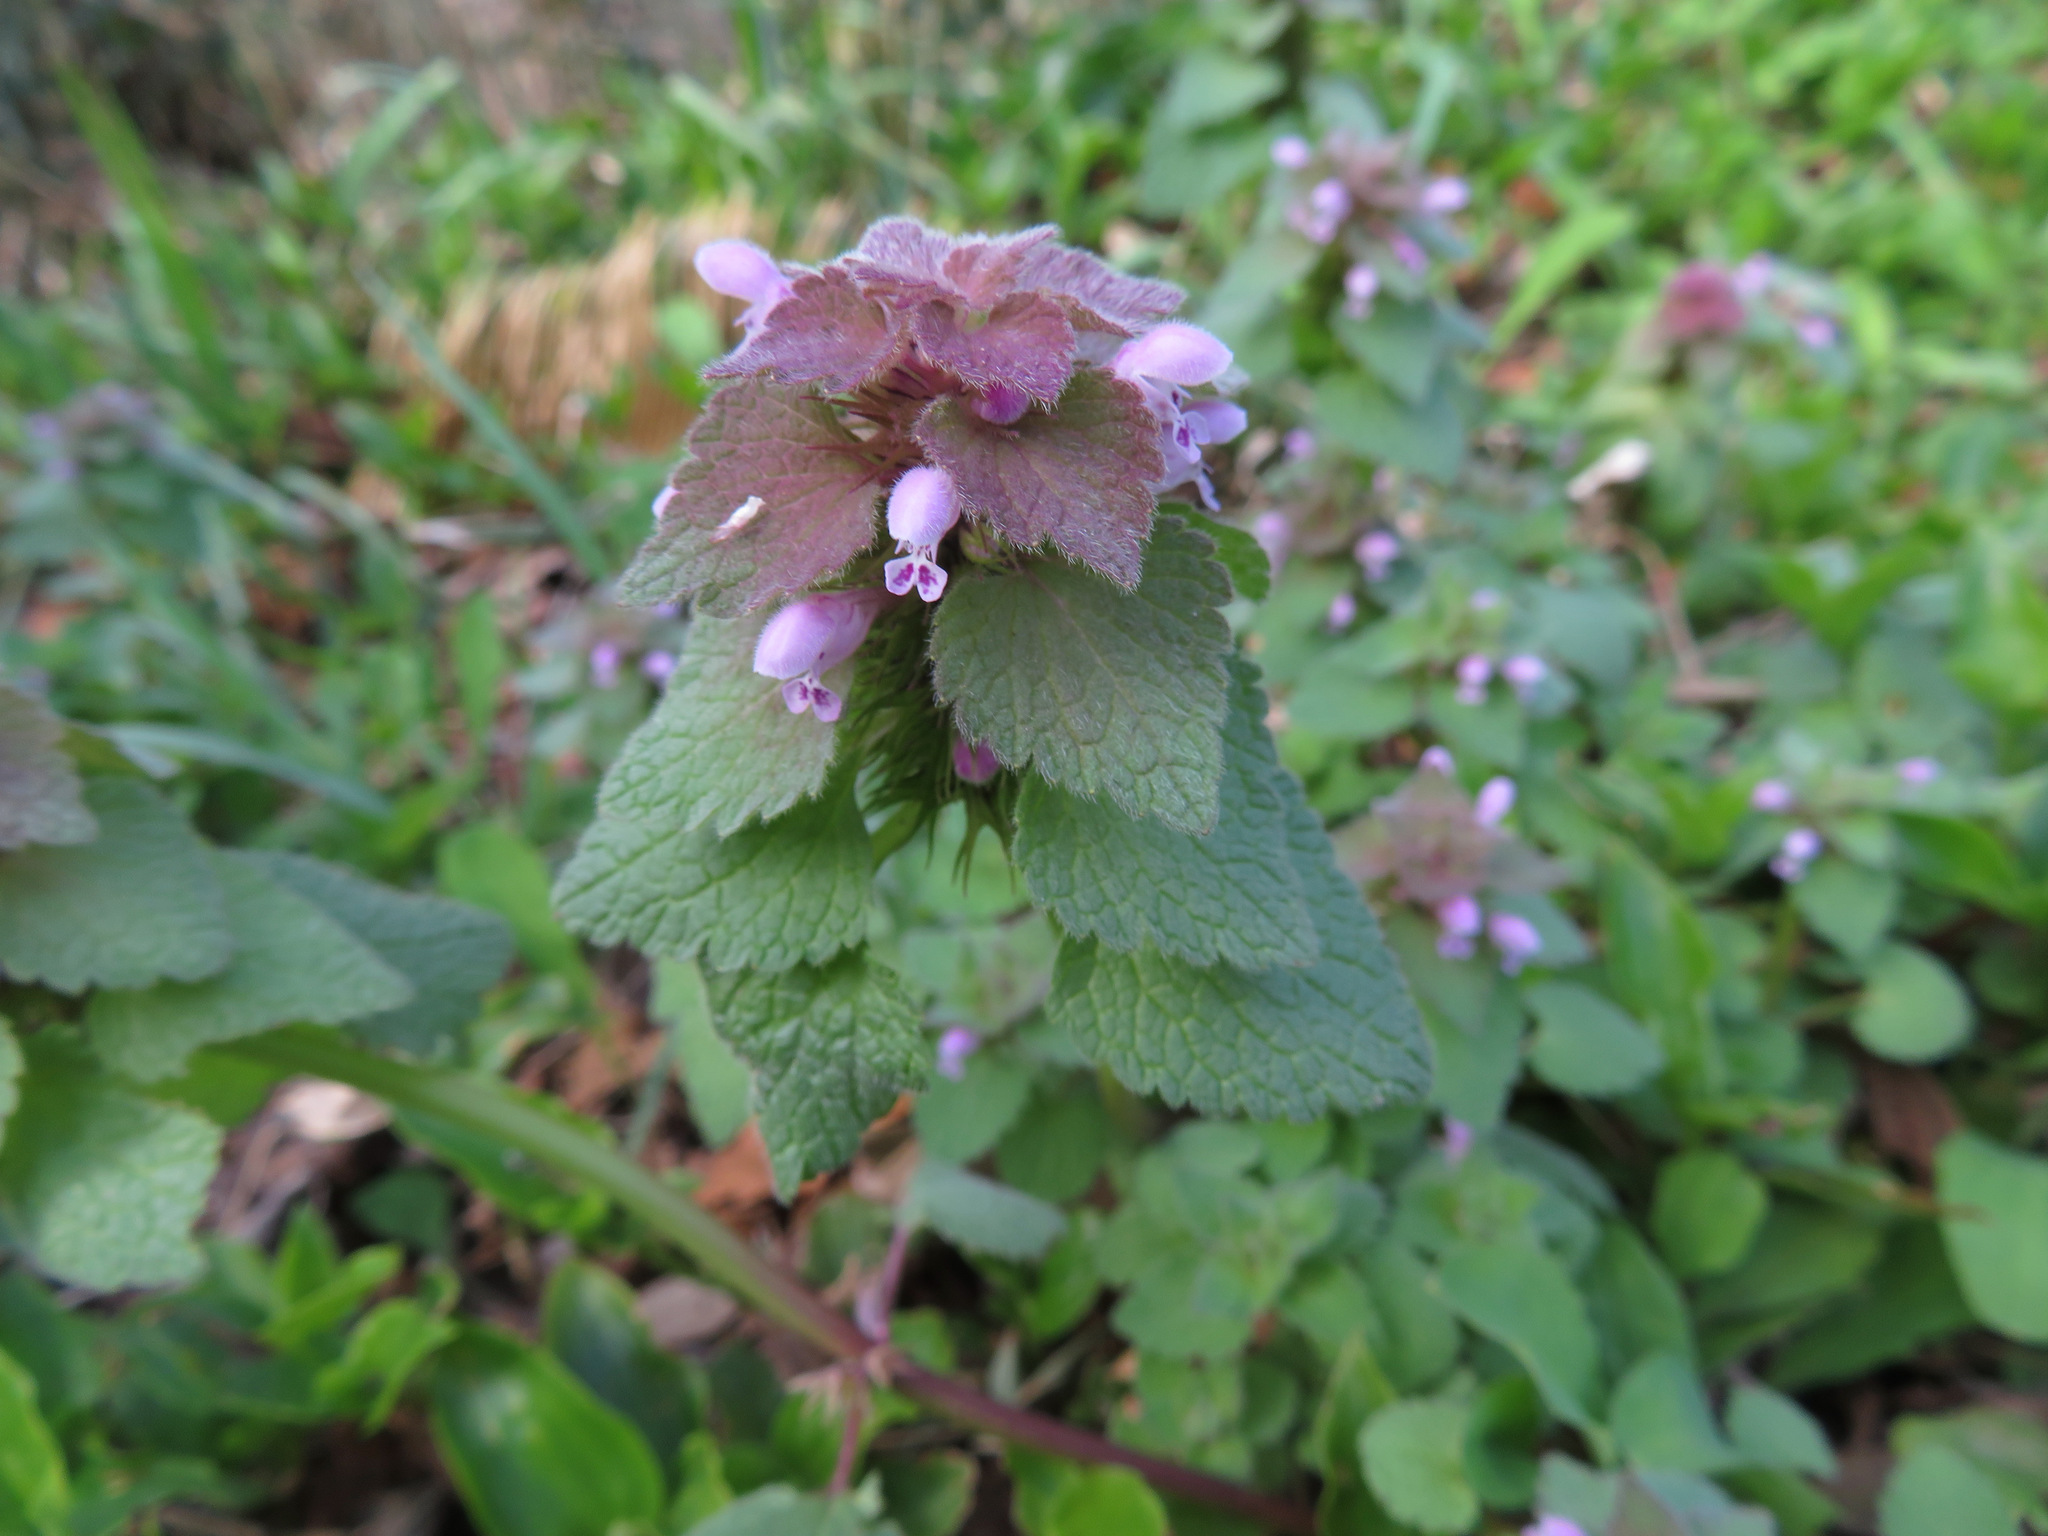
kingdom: Plantae
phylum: Tracheophyta
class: Magnoliopsida
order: Lamiales
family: Lamiaceae
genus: Lamium
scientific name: Lamium purpureum
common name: Red dead-nettle
